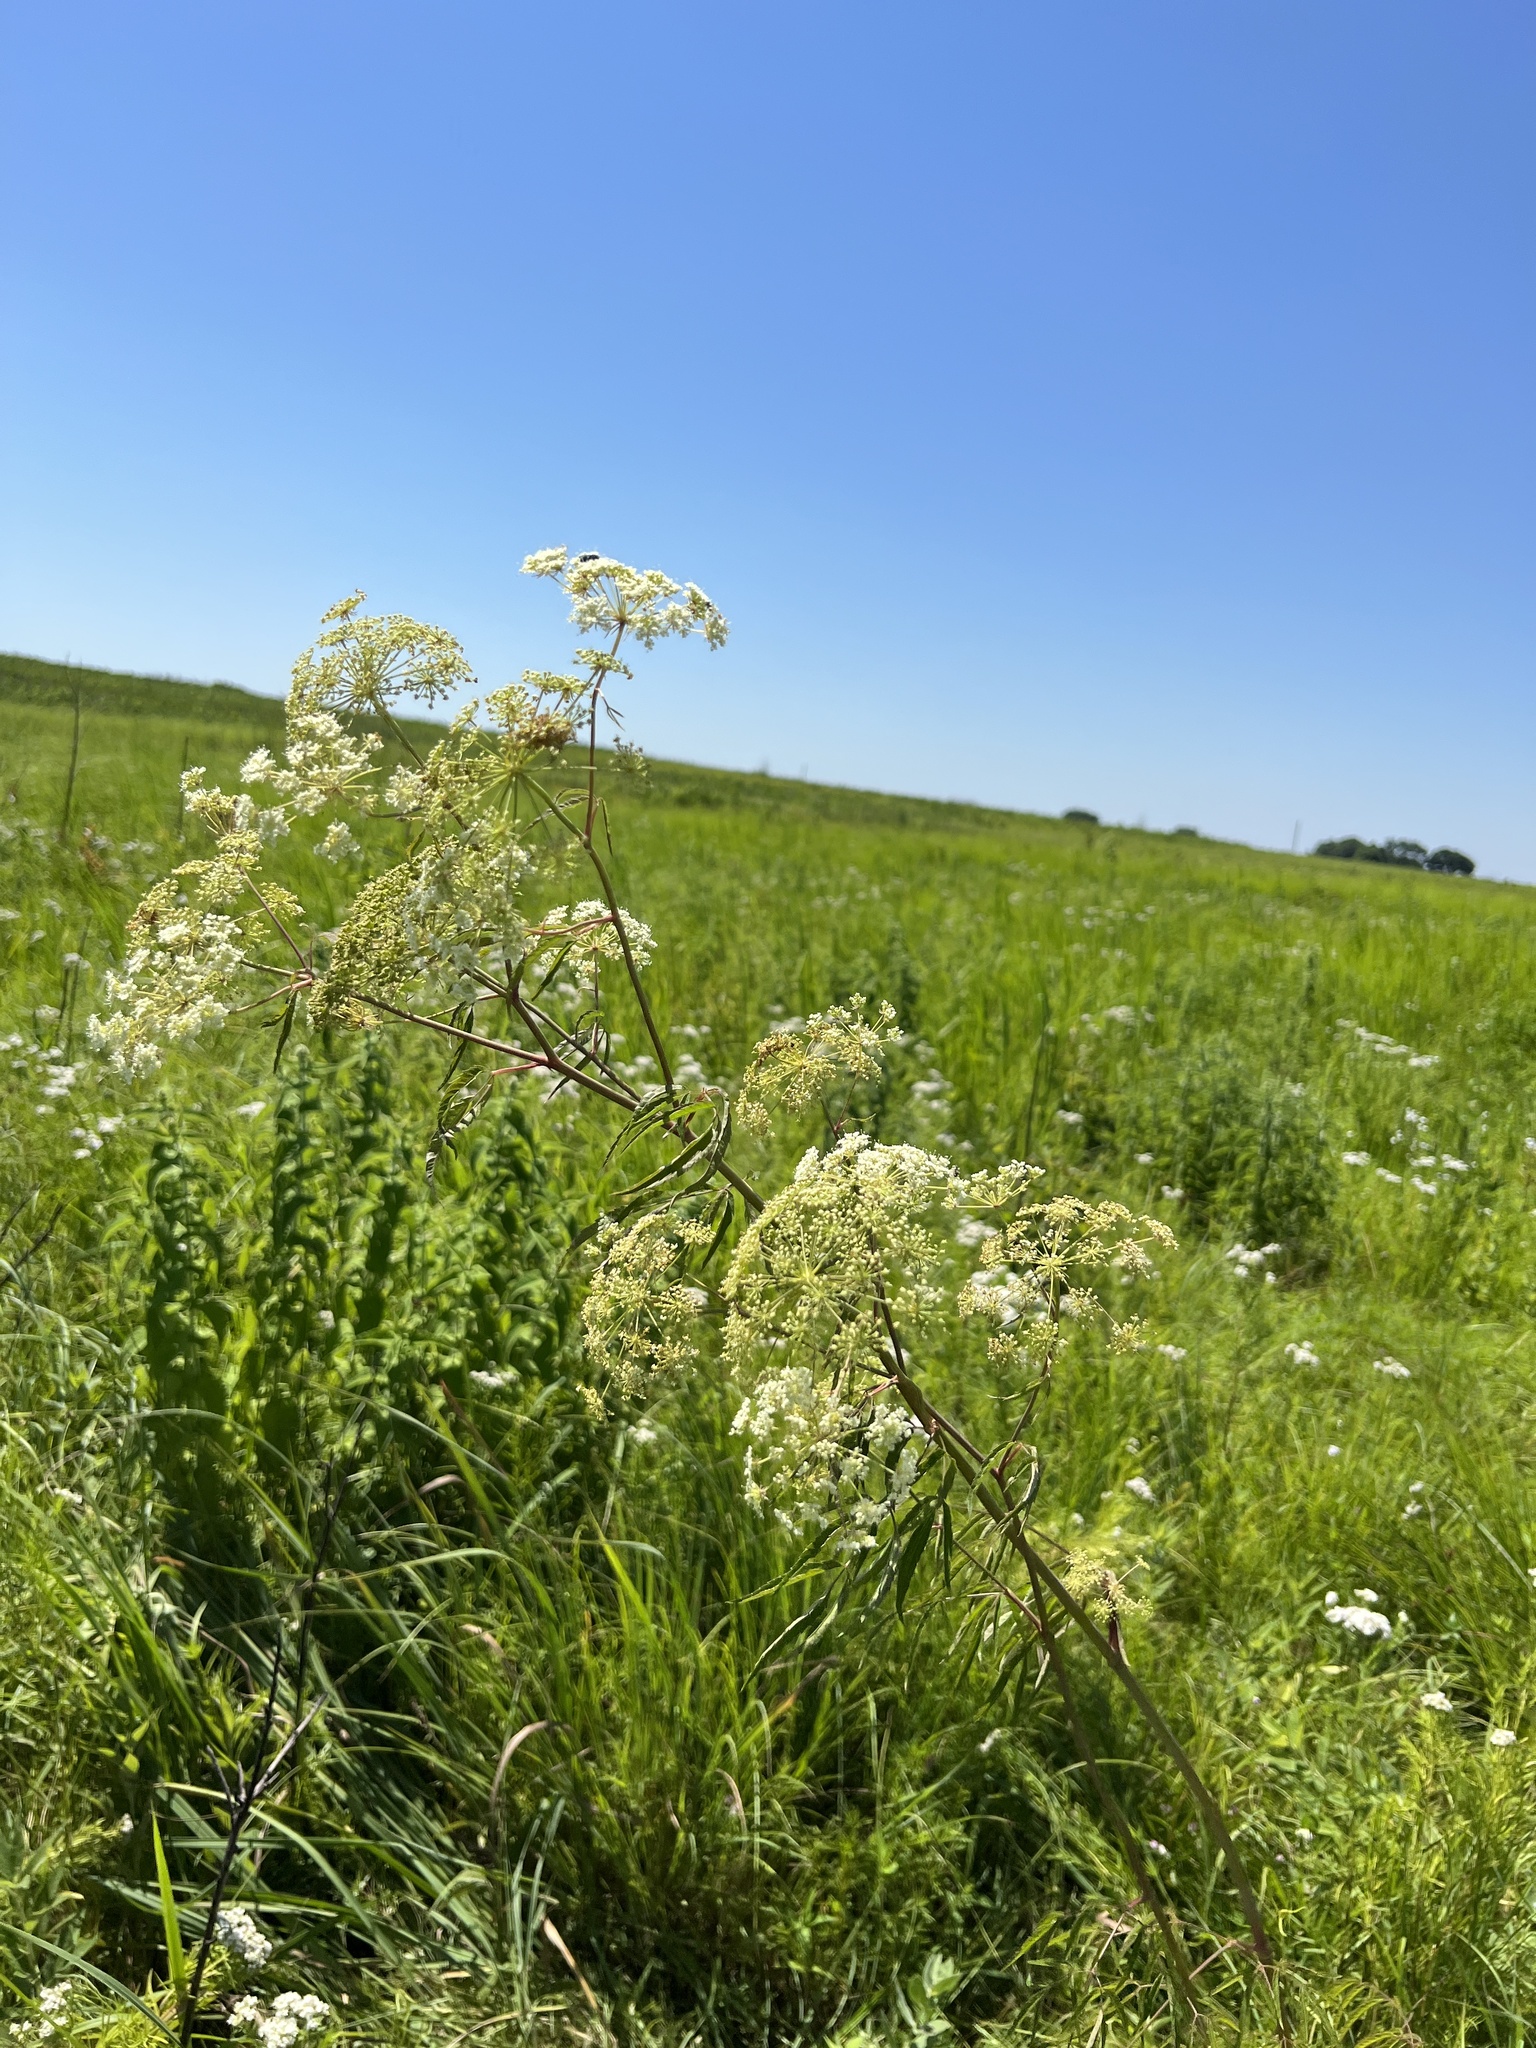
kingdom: Plantae
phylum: Tracheophyta
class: Magnoliopsida
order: Apiales
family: Apiaceae
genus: Cicuta
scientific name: Cicuta maculata
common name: Spotted cowbane
